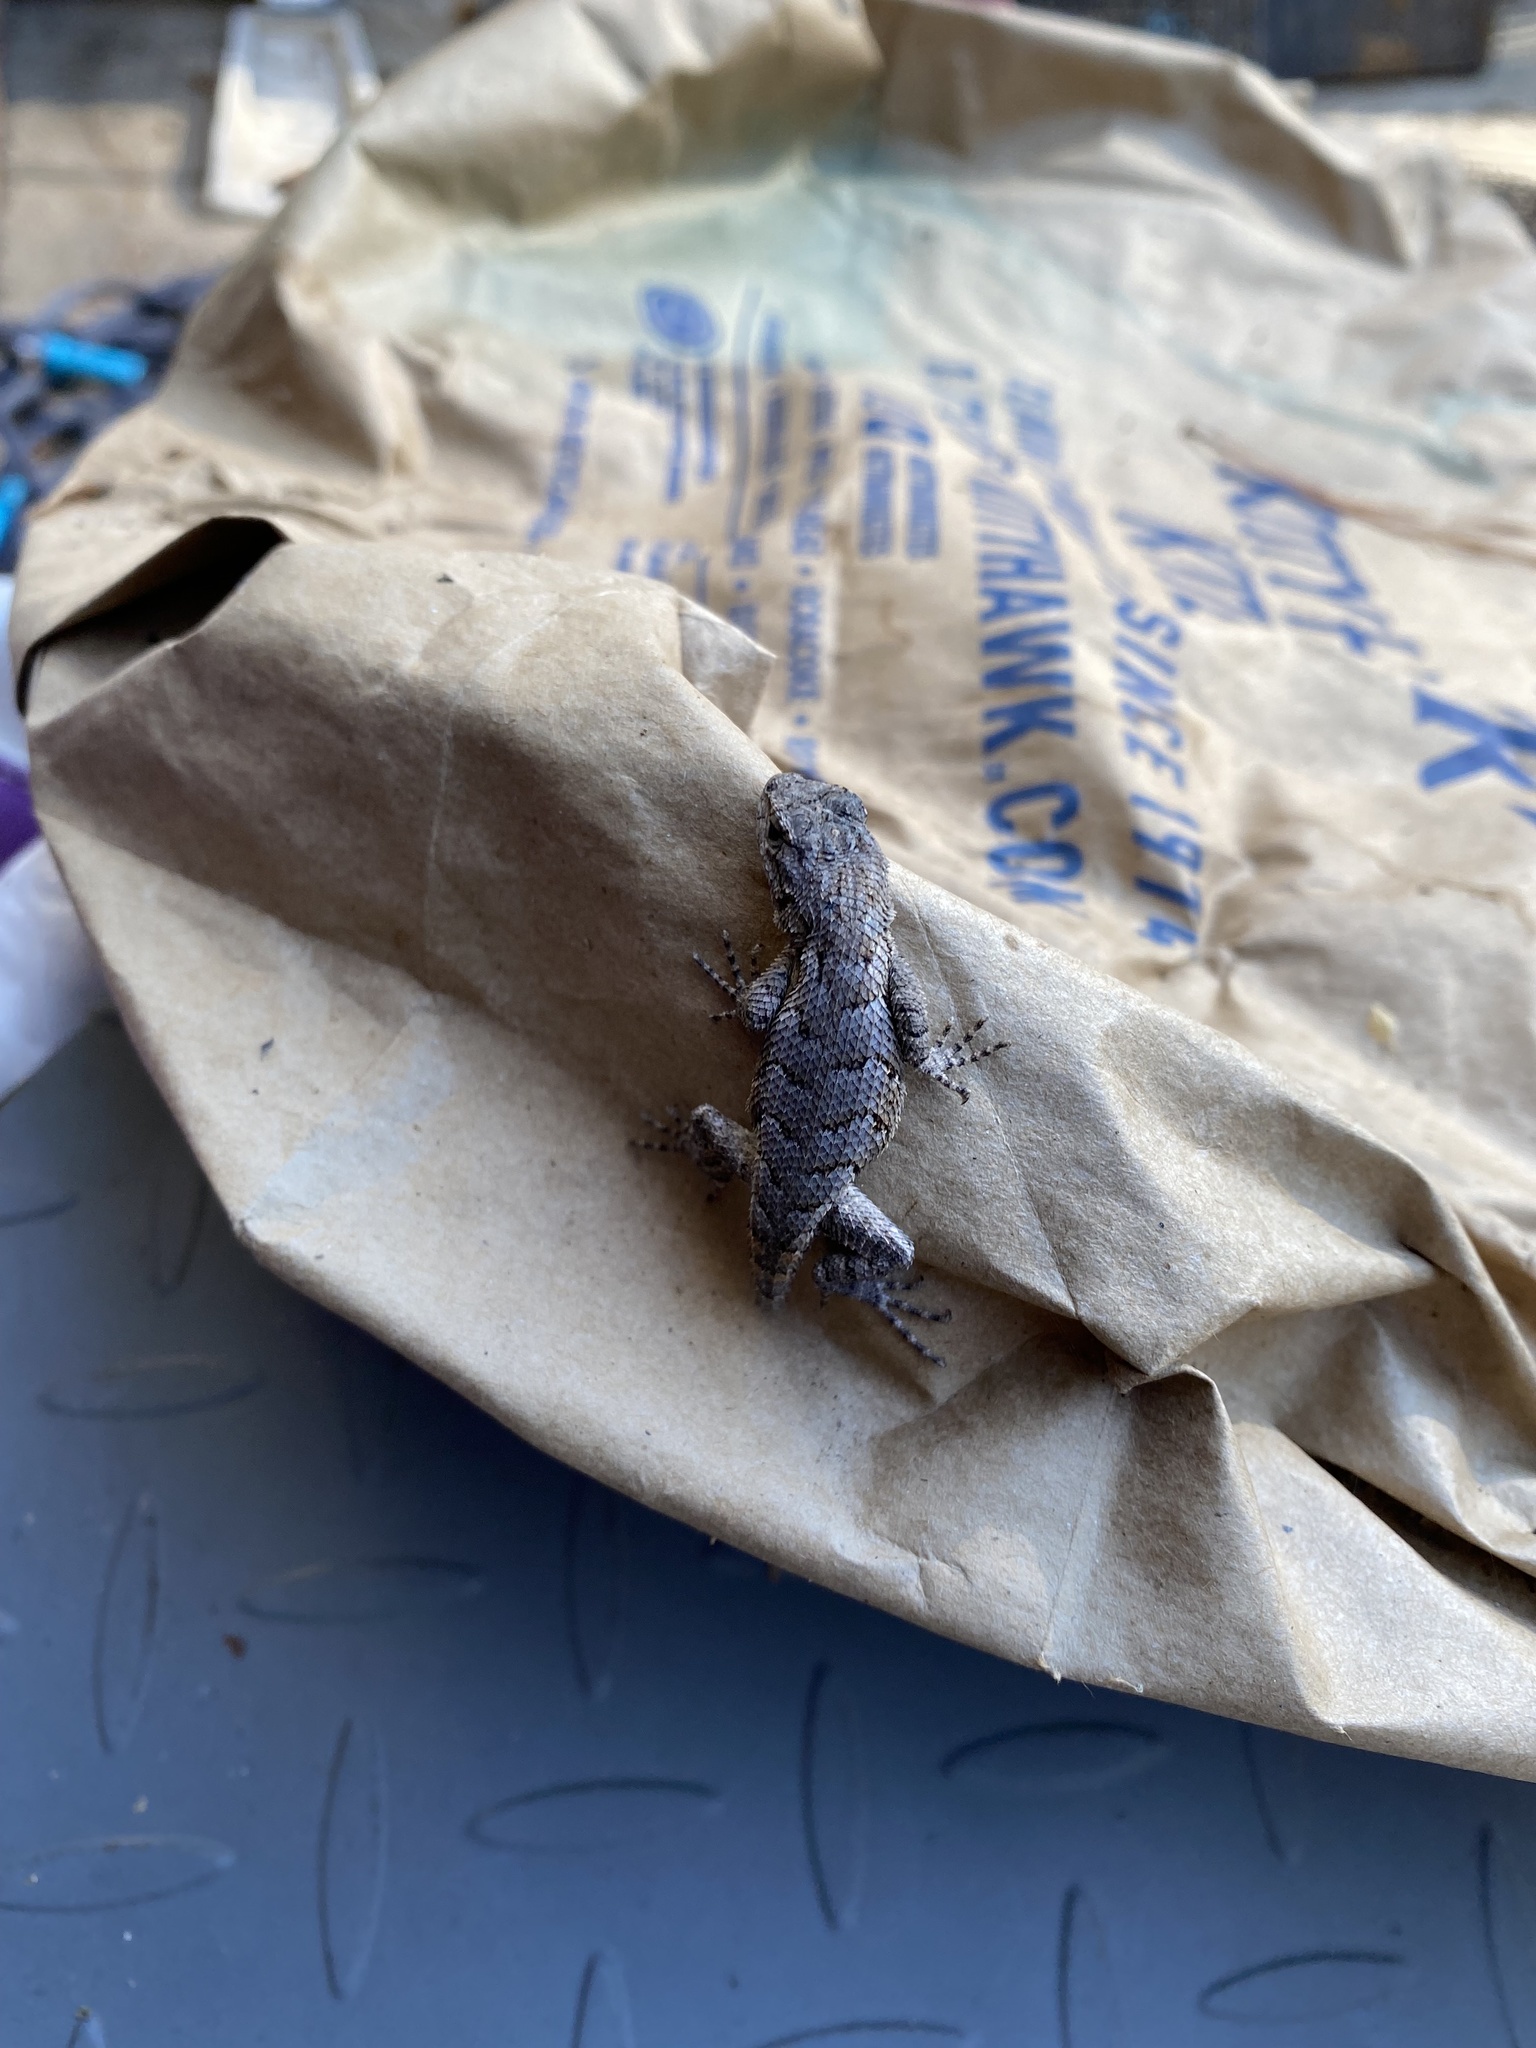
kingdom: Animalia
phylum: Chordata
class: Squamata
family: Phrynosomatidae
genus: Sceloporus
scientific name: Sceloporus undulatus
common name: Eastern fence lizard
